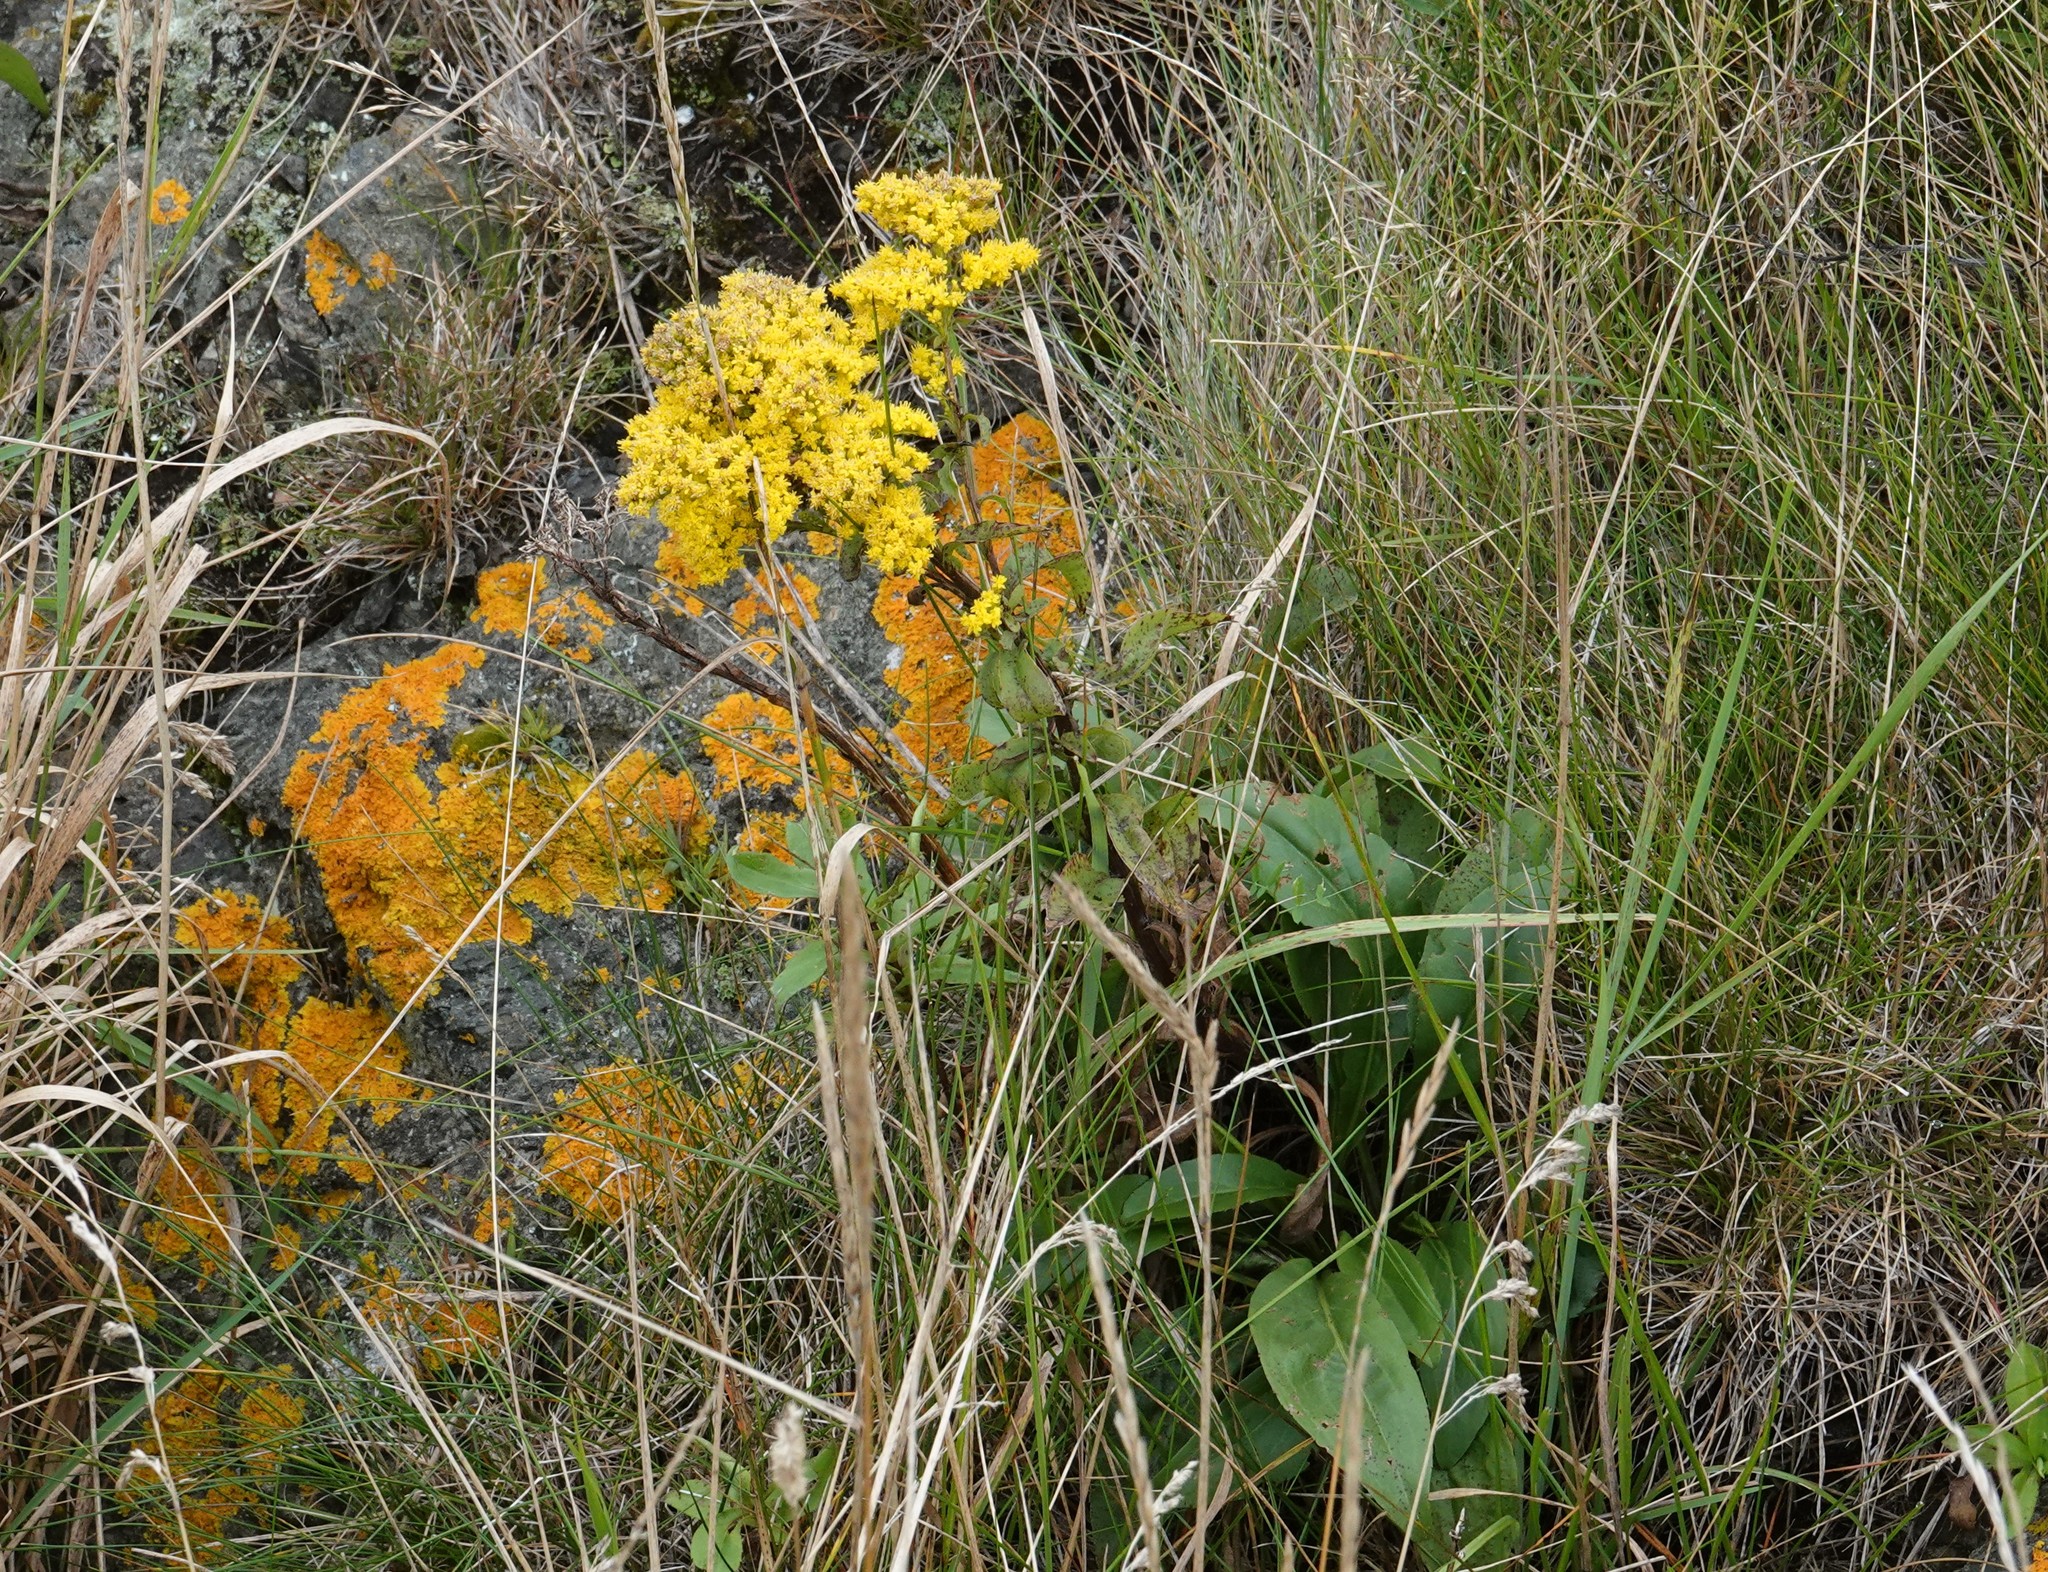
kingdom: Plantae
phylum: Tracheophyta
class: Magnoliopsida
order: Asterales
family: Asteraceae
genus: Solidago
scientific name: Solidago sempervirens
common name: Salt-marsh goldenrod
